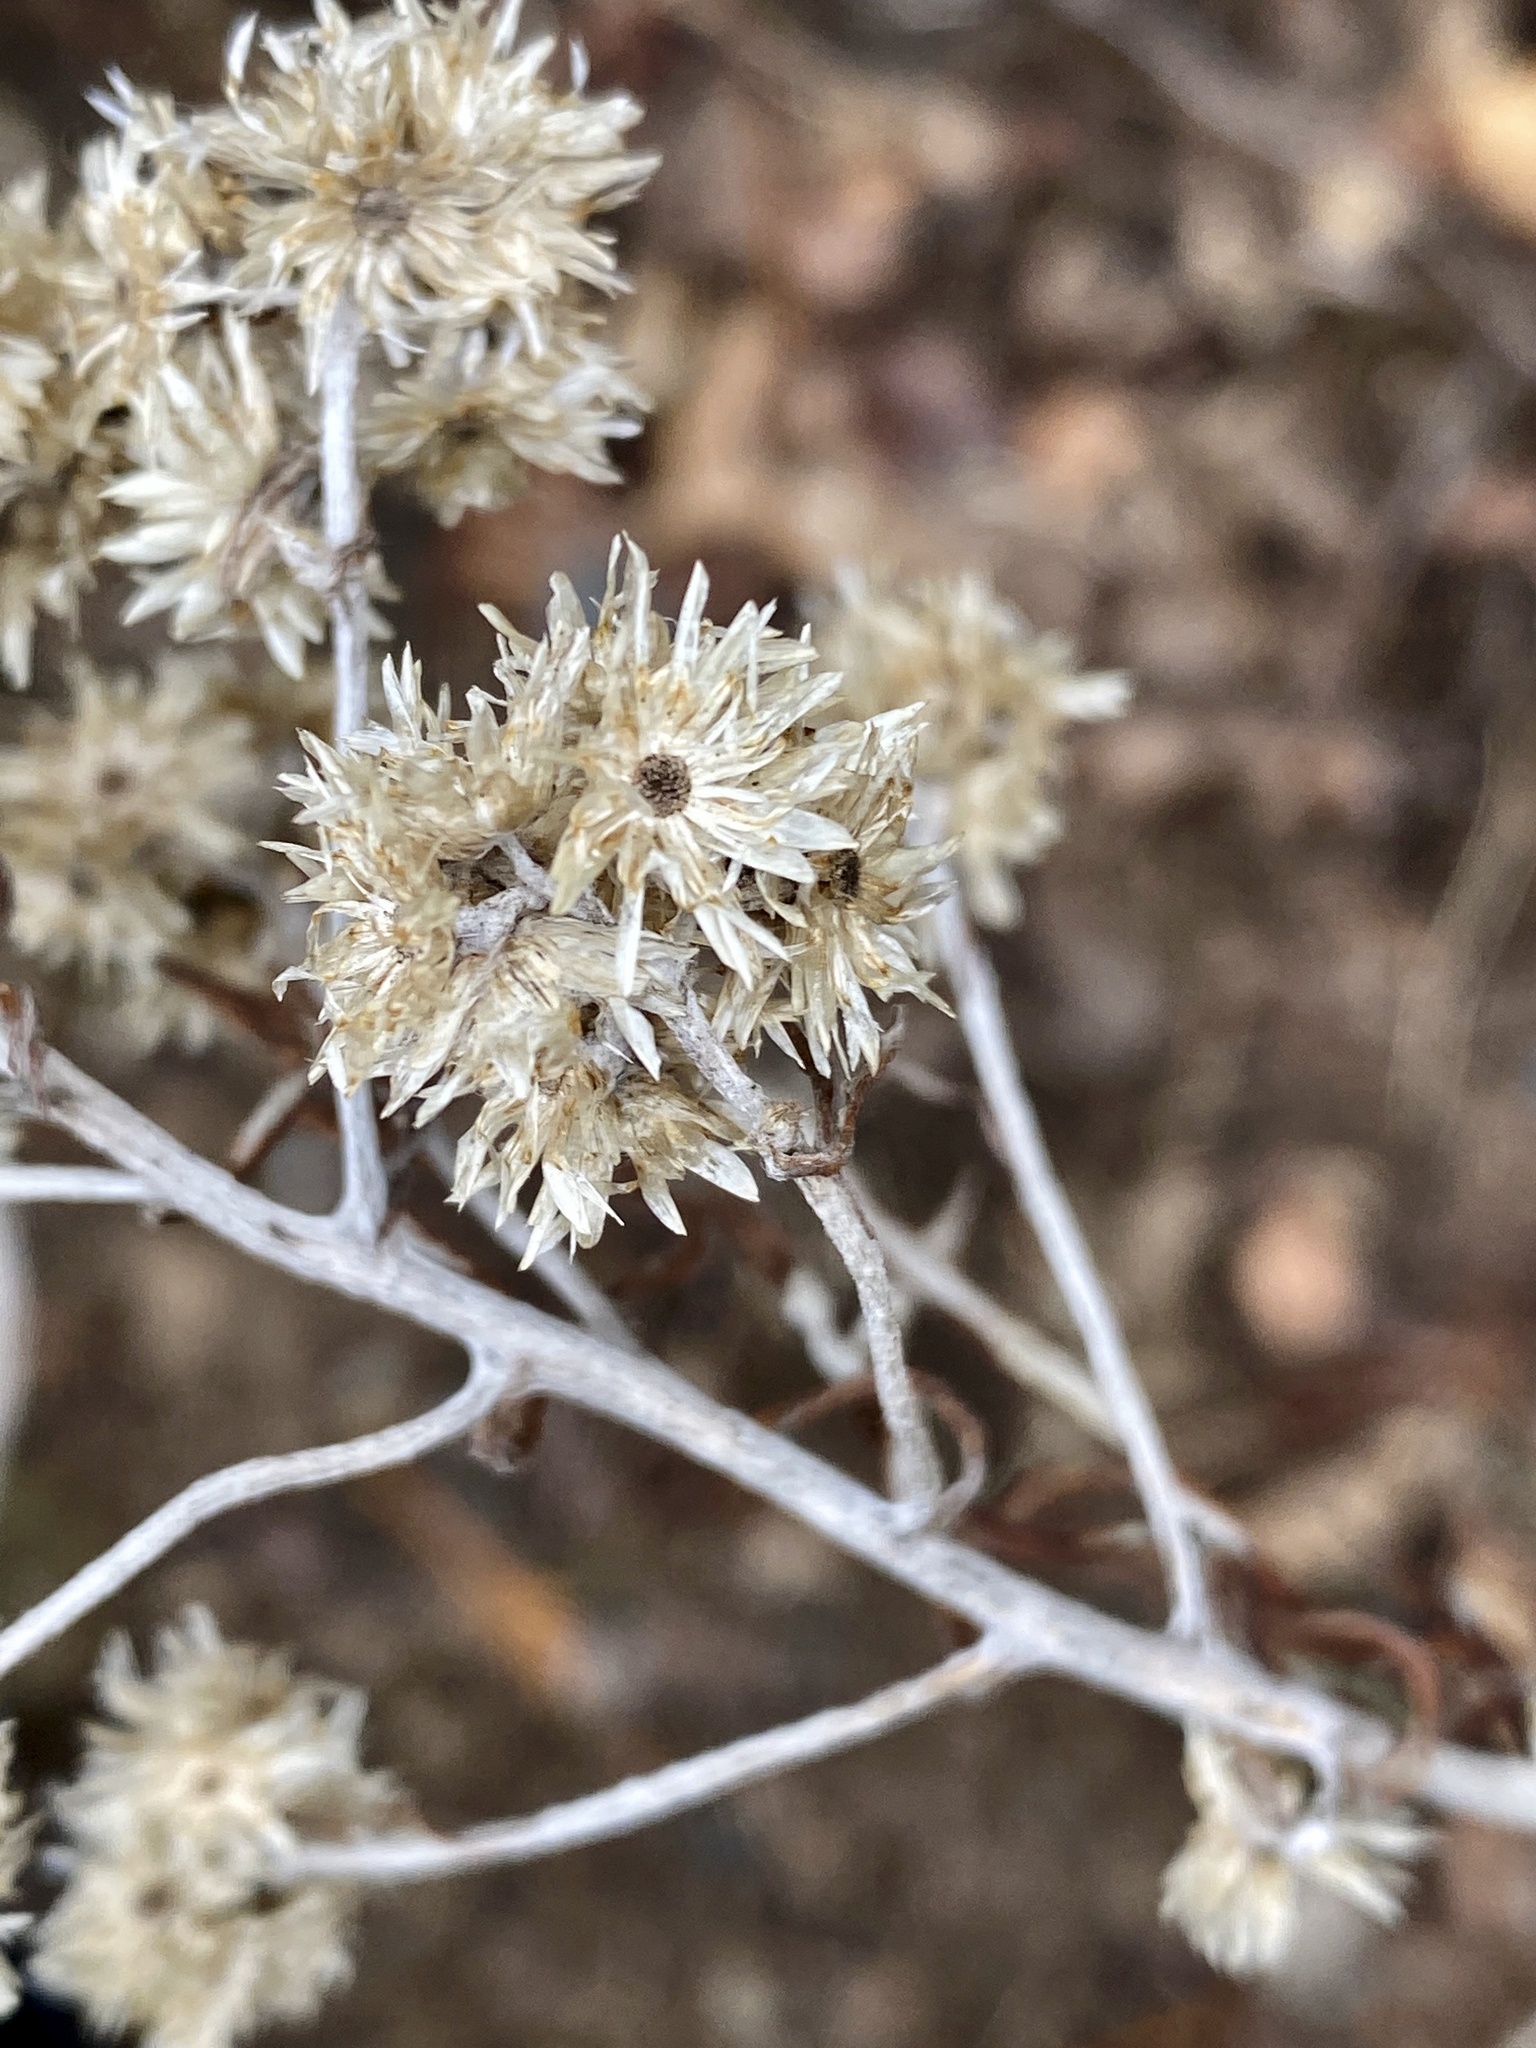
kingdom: Plantae
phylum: Tracheophyta
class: Magnoliopsida
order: Asterales
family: Asteraceae
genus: Pseudognaphalium
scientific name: Pseudognaphalium obtusifolium
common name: Eastern rabbit-tobacco
